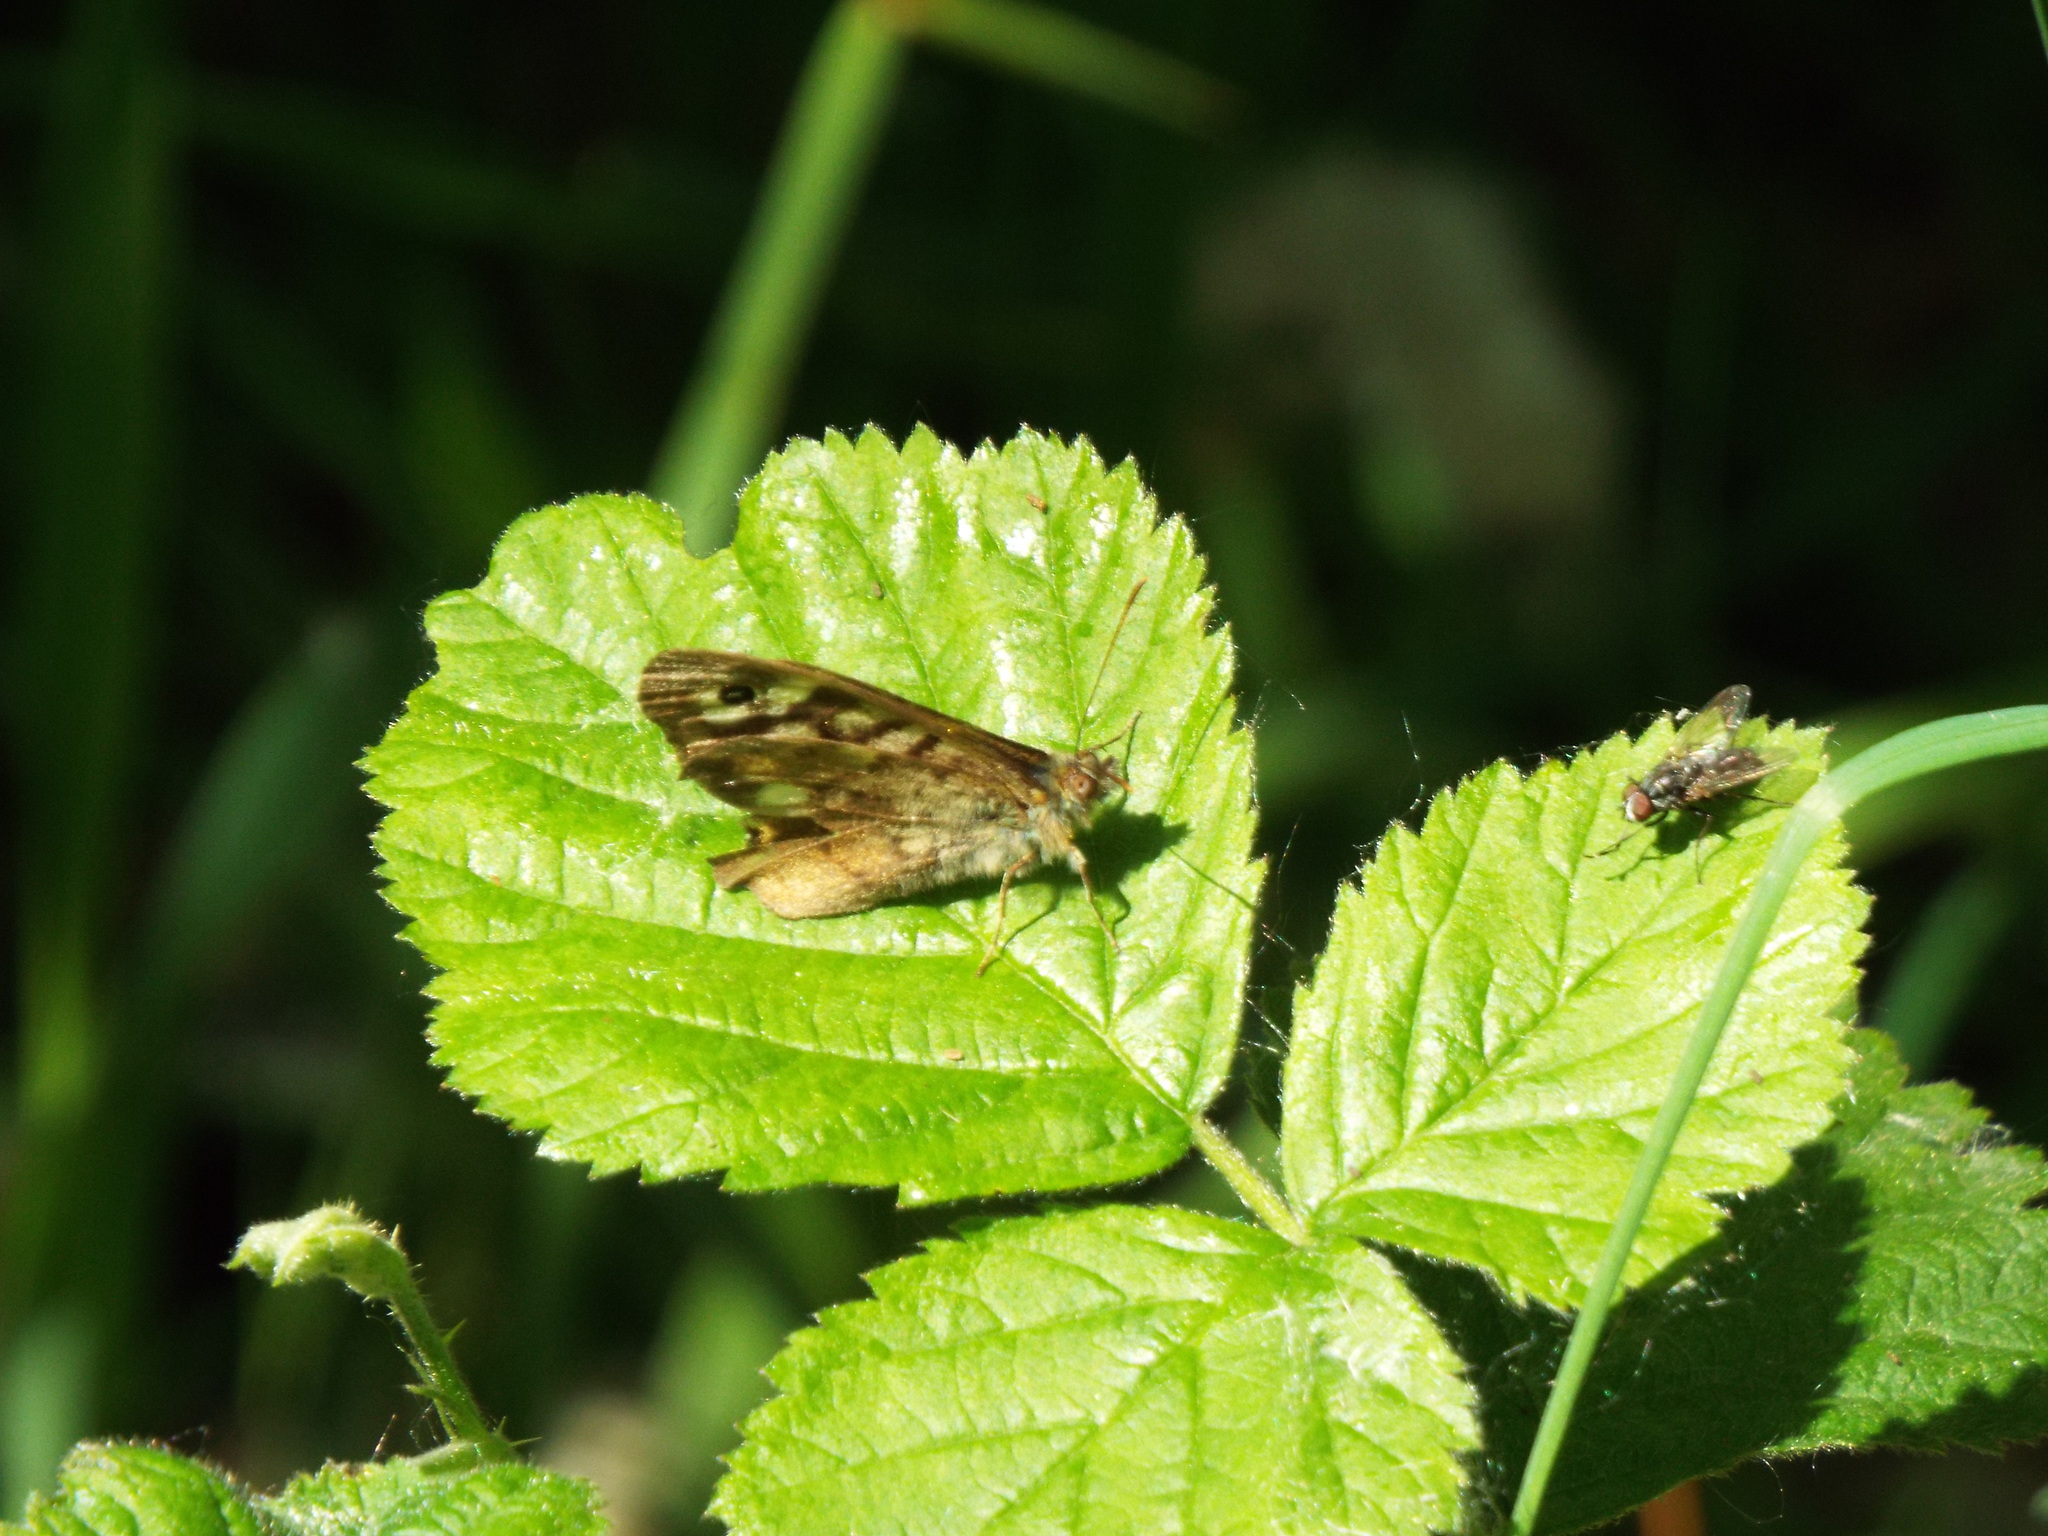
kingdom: Animalia
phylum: Arthropoda
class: Insecta
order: Lepidoptera
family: Nymphalidae
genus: Pararge
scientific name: Pararge aegeria
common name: Speckled wood
